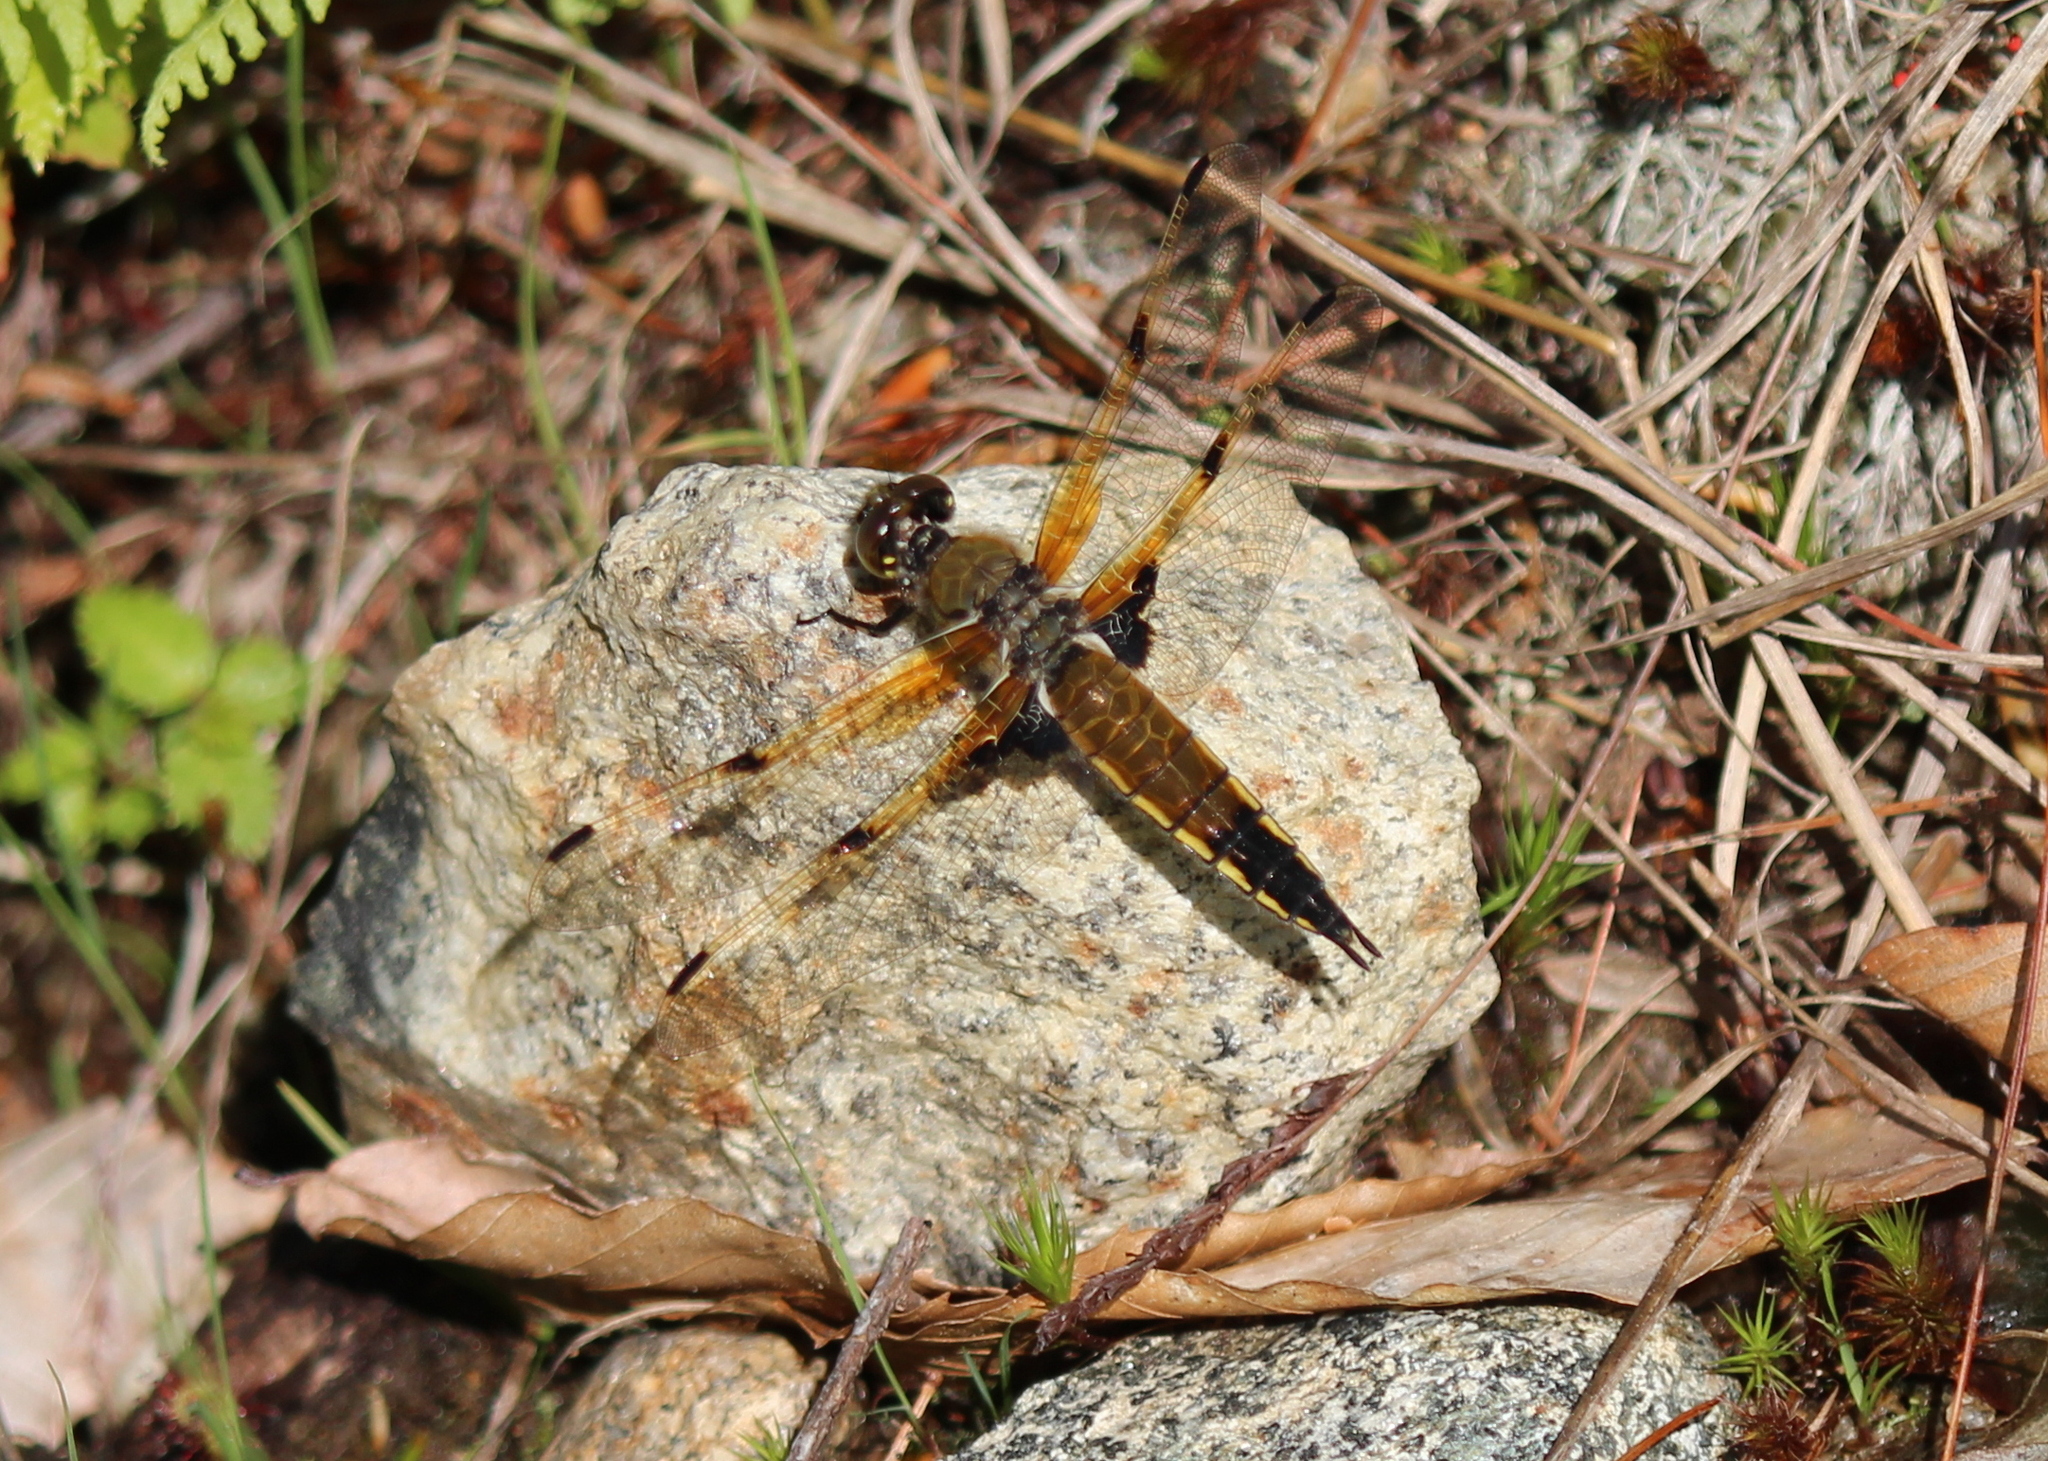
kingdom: Animalia
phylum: Arthropoda
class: Insecta
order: Odonata
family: Libellulidae
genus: Libellula
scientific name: Libellula quadrimaculata
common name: Four-spotted chaser
